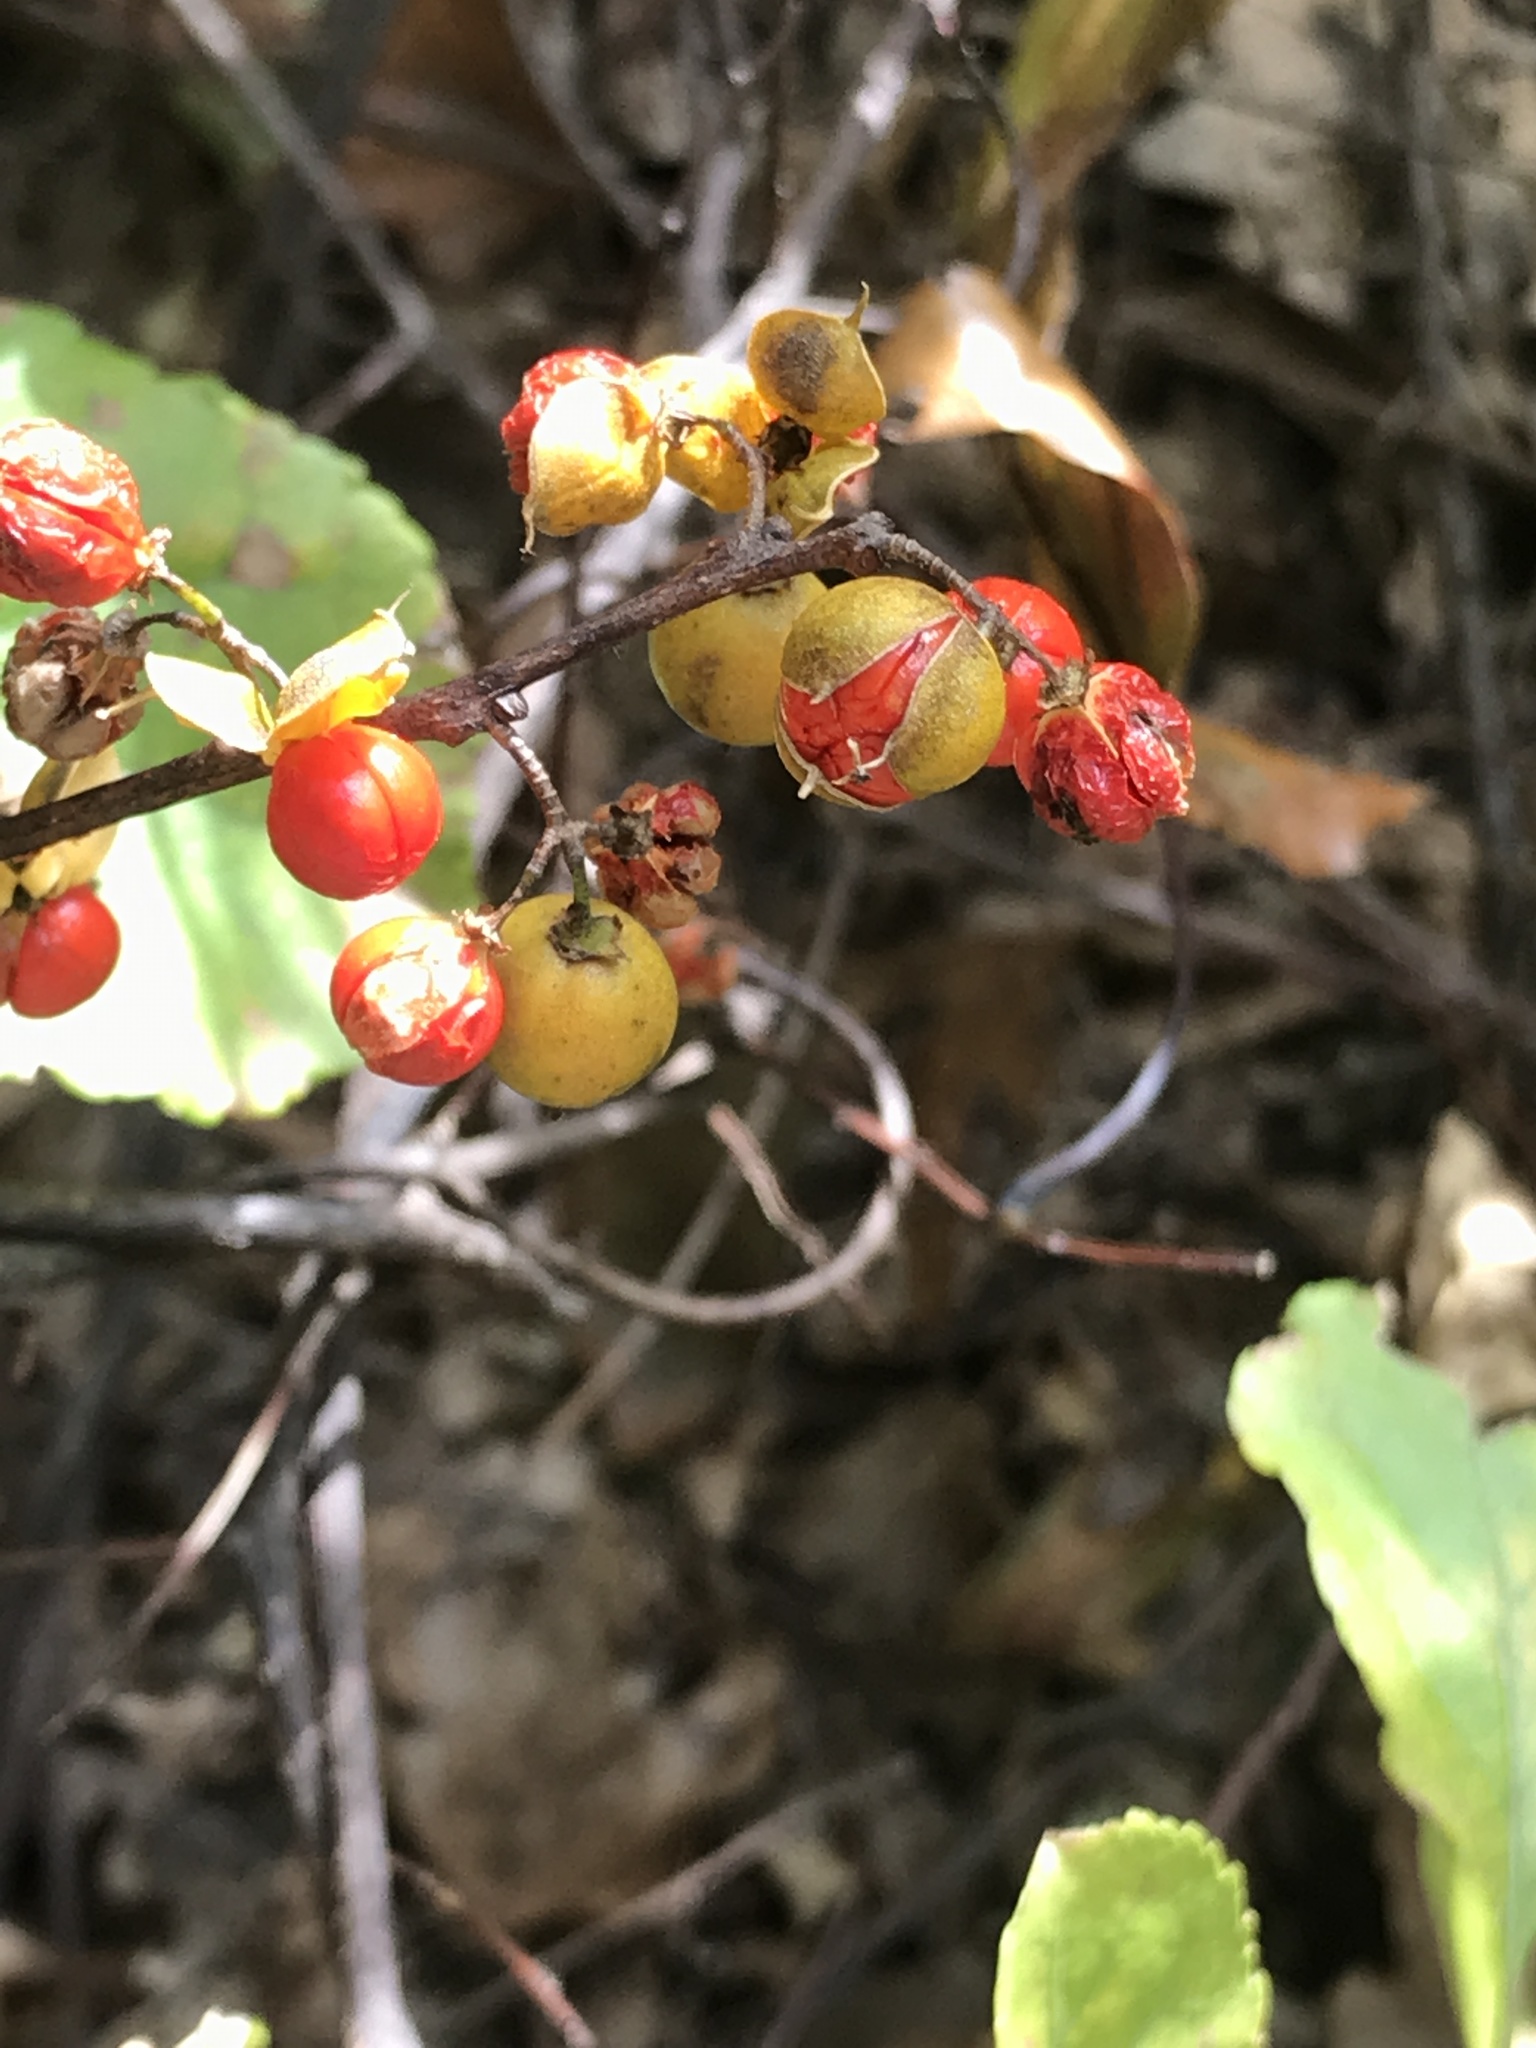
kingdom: Plantae
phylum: Tracheophyta
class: Magnoliopsida
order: Celastrales
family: Celastraceae
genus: Celastrus
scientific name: Celastrus orbiculatus
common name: Oriental bittersweet
